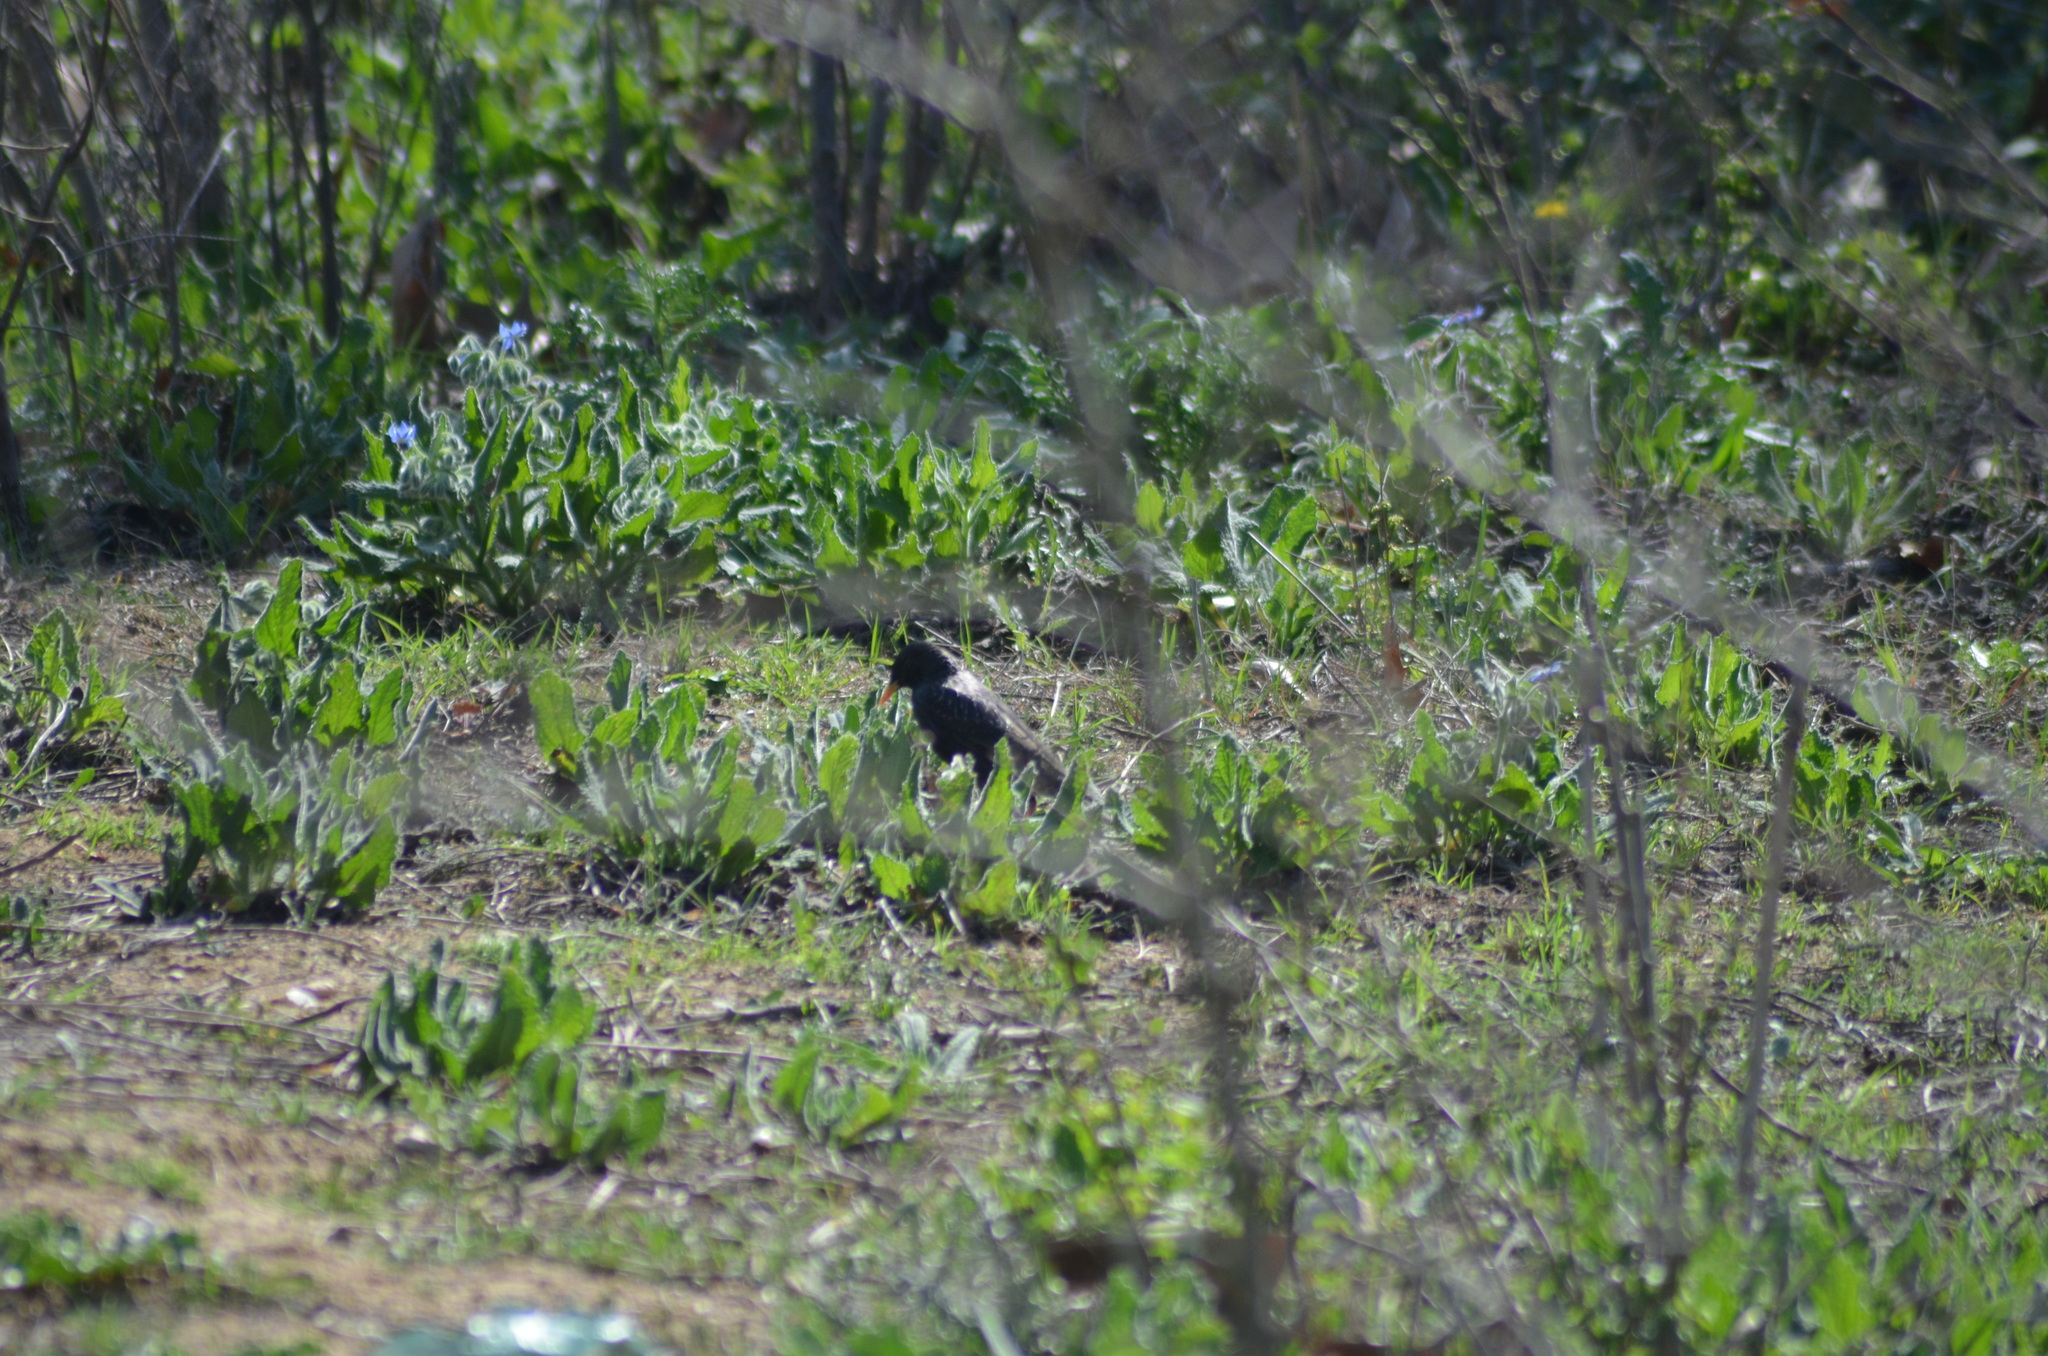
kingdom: Animalia
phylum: Chordata
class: Aves
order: Passeriformes
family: Sturnidae
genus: Sturnus
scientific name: Sturnus vulgaris
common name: Common starling
